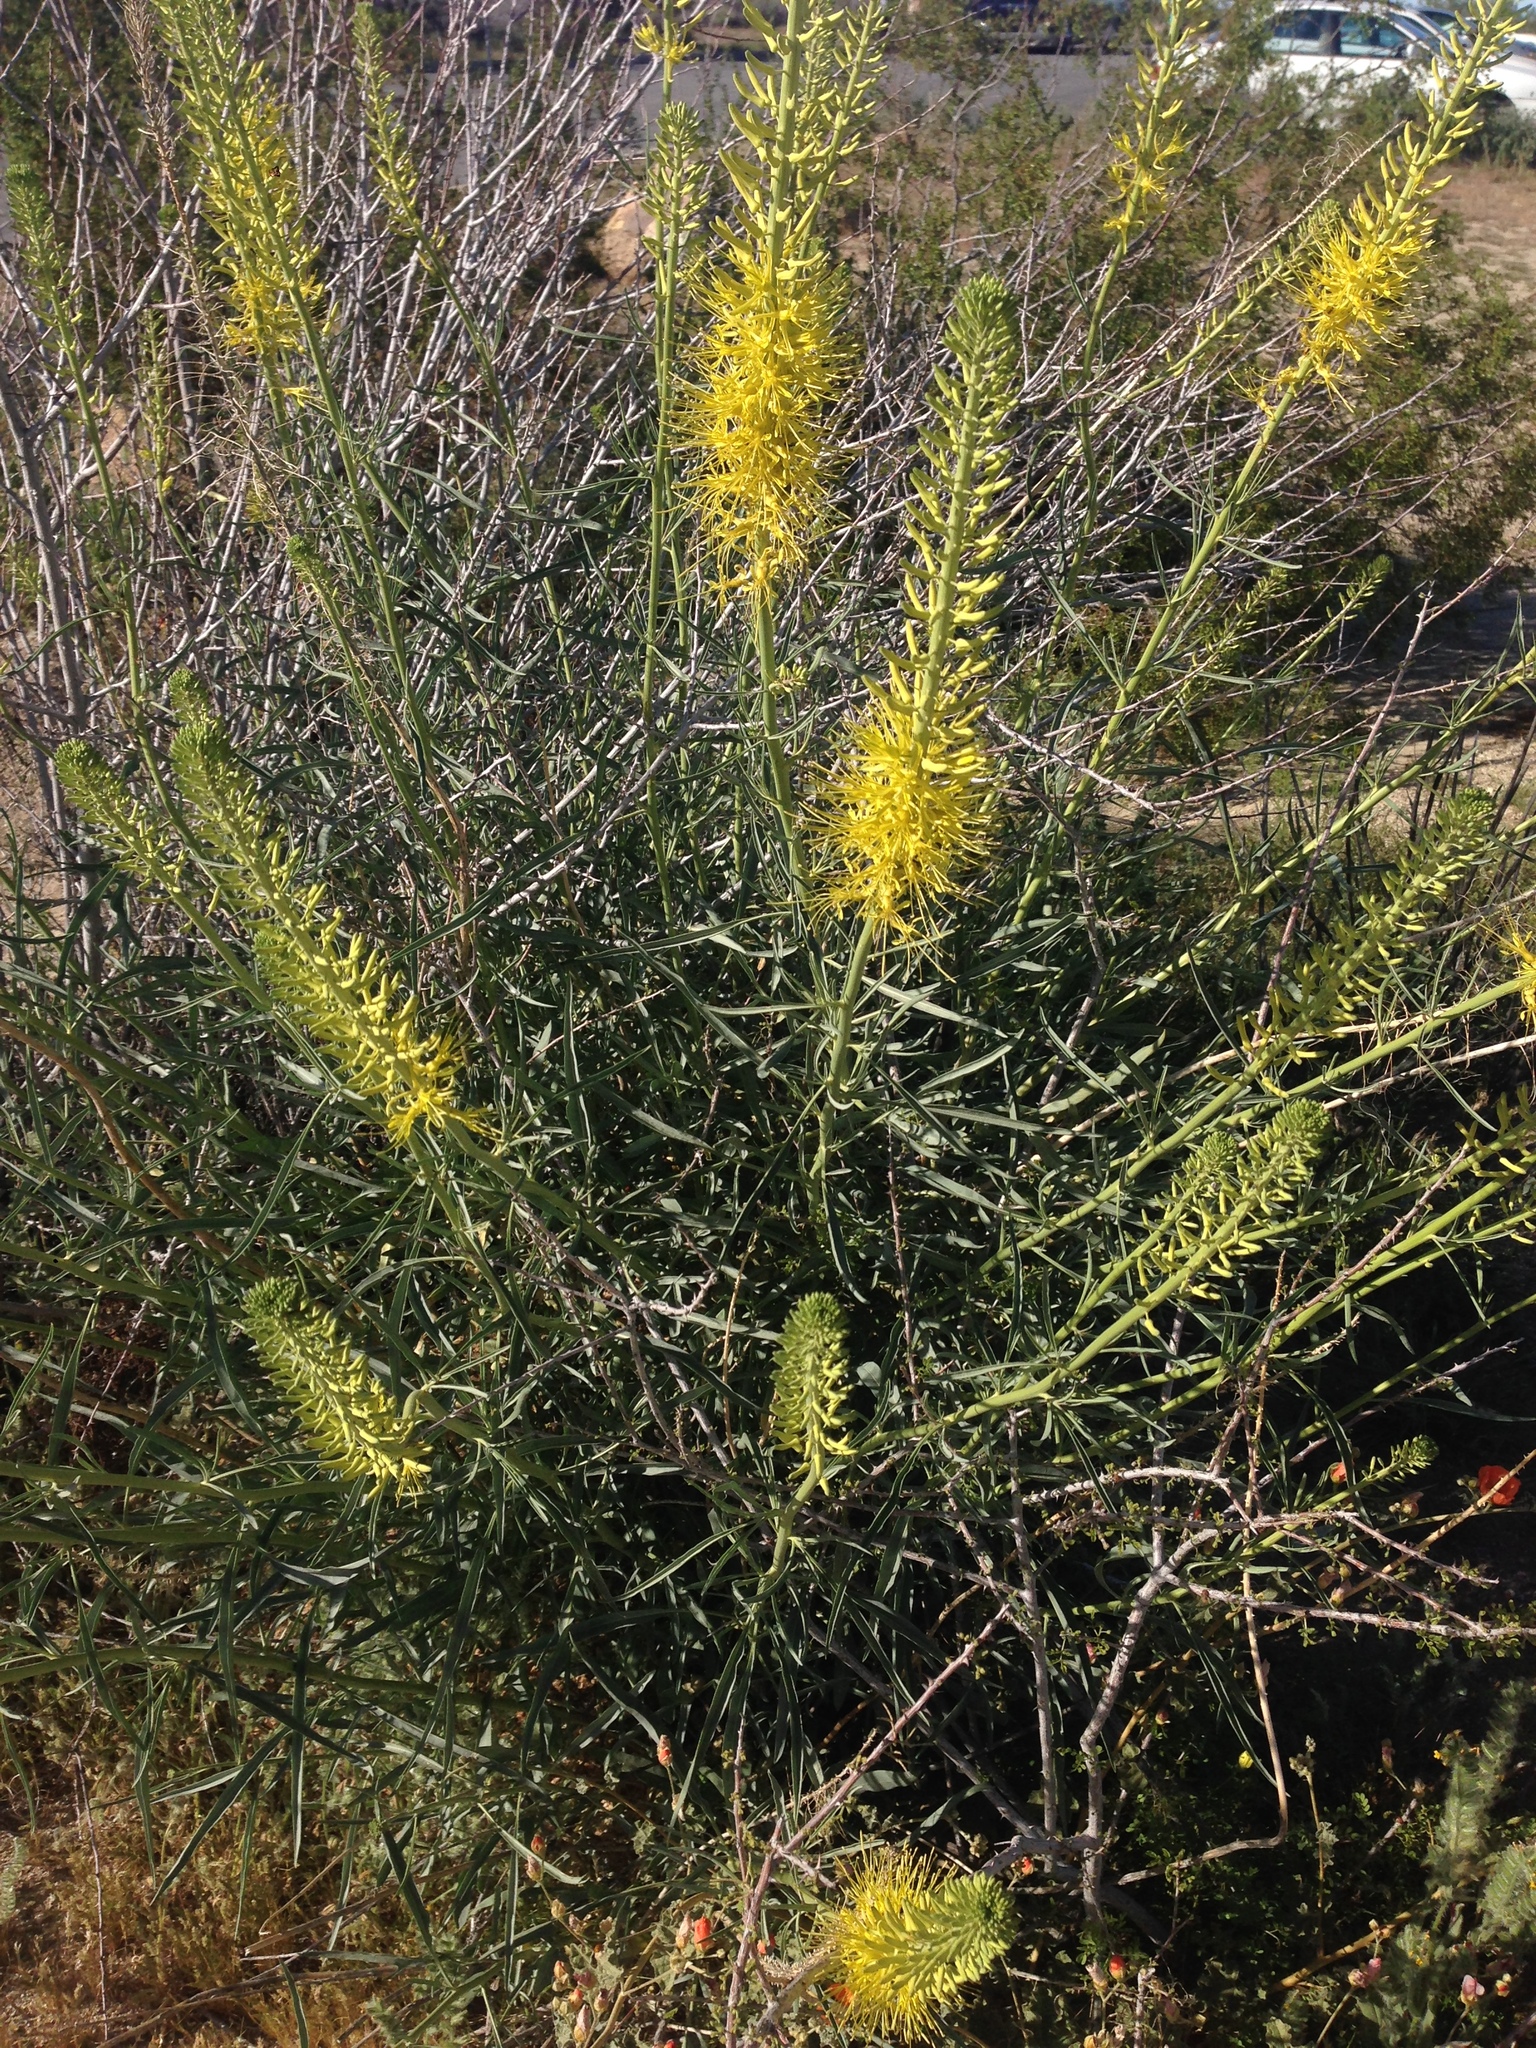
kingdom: Plantae
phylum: Tracheophyta
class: Magnoliopsida
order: Brassicales
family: Brassicaceae
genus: Stanleya
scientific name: Stanleya pinnata
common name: Prince's-plume
